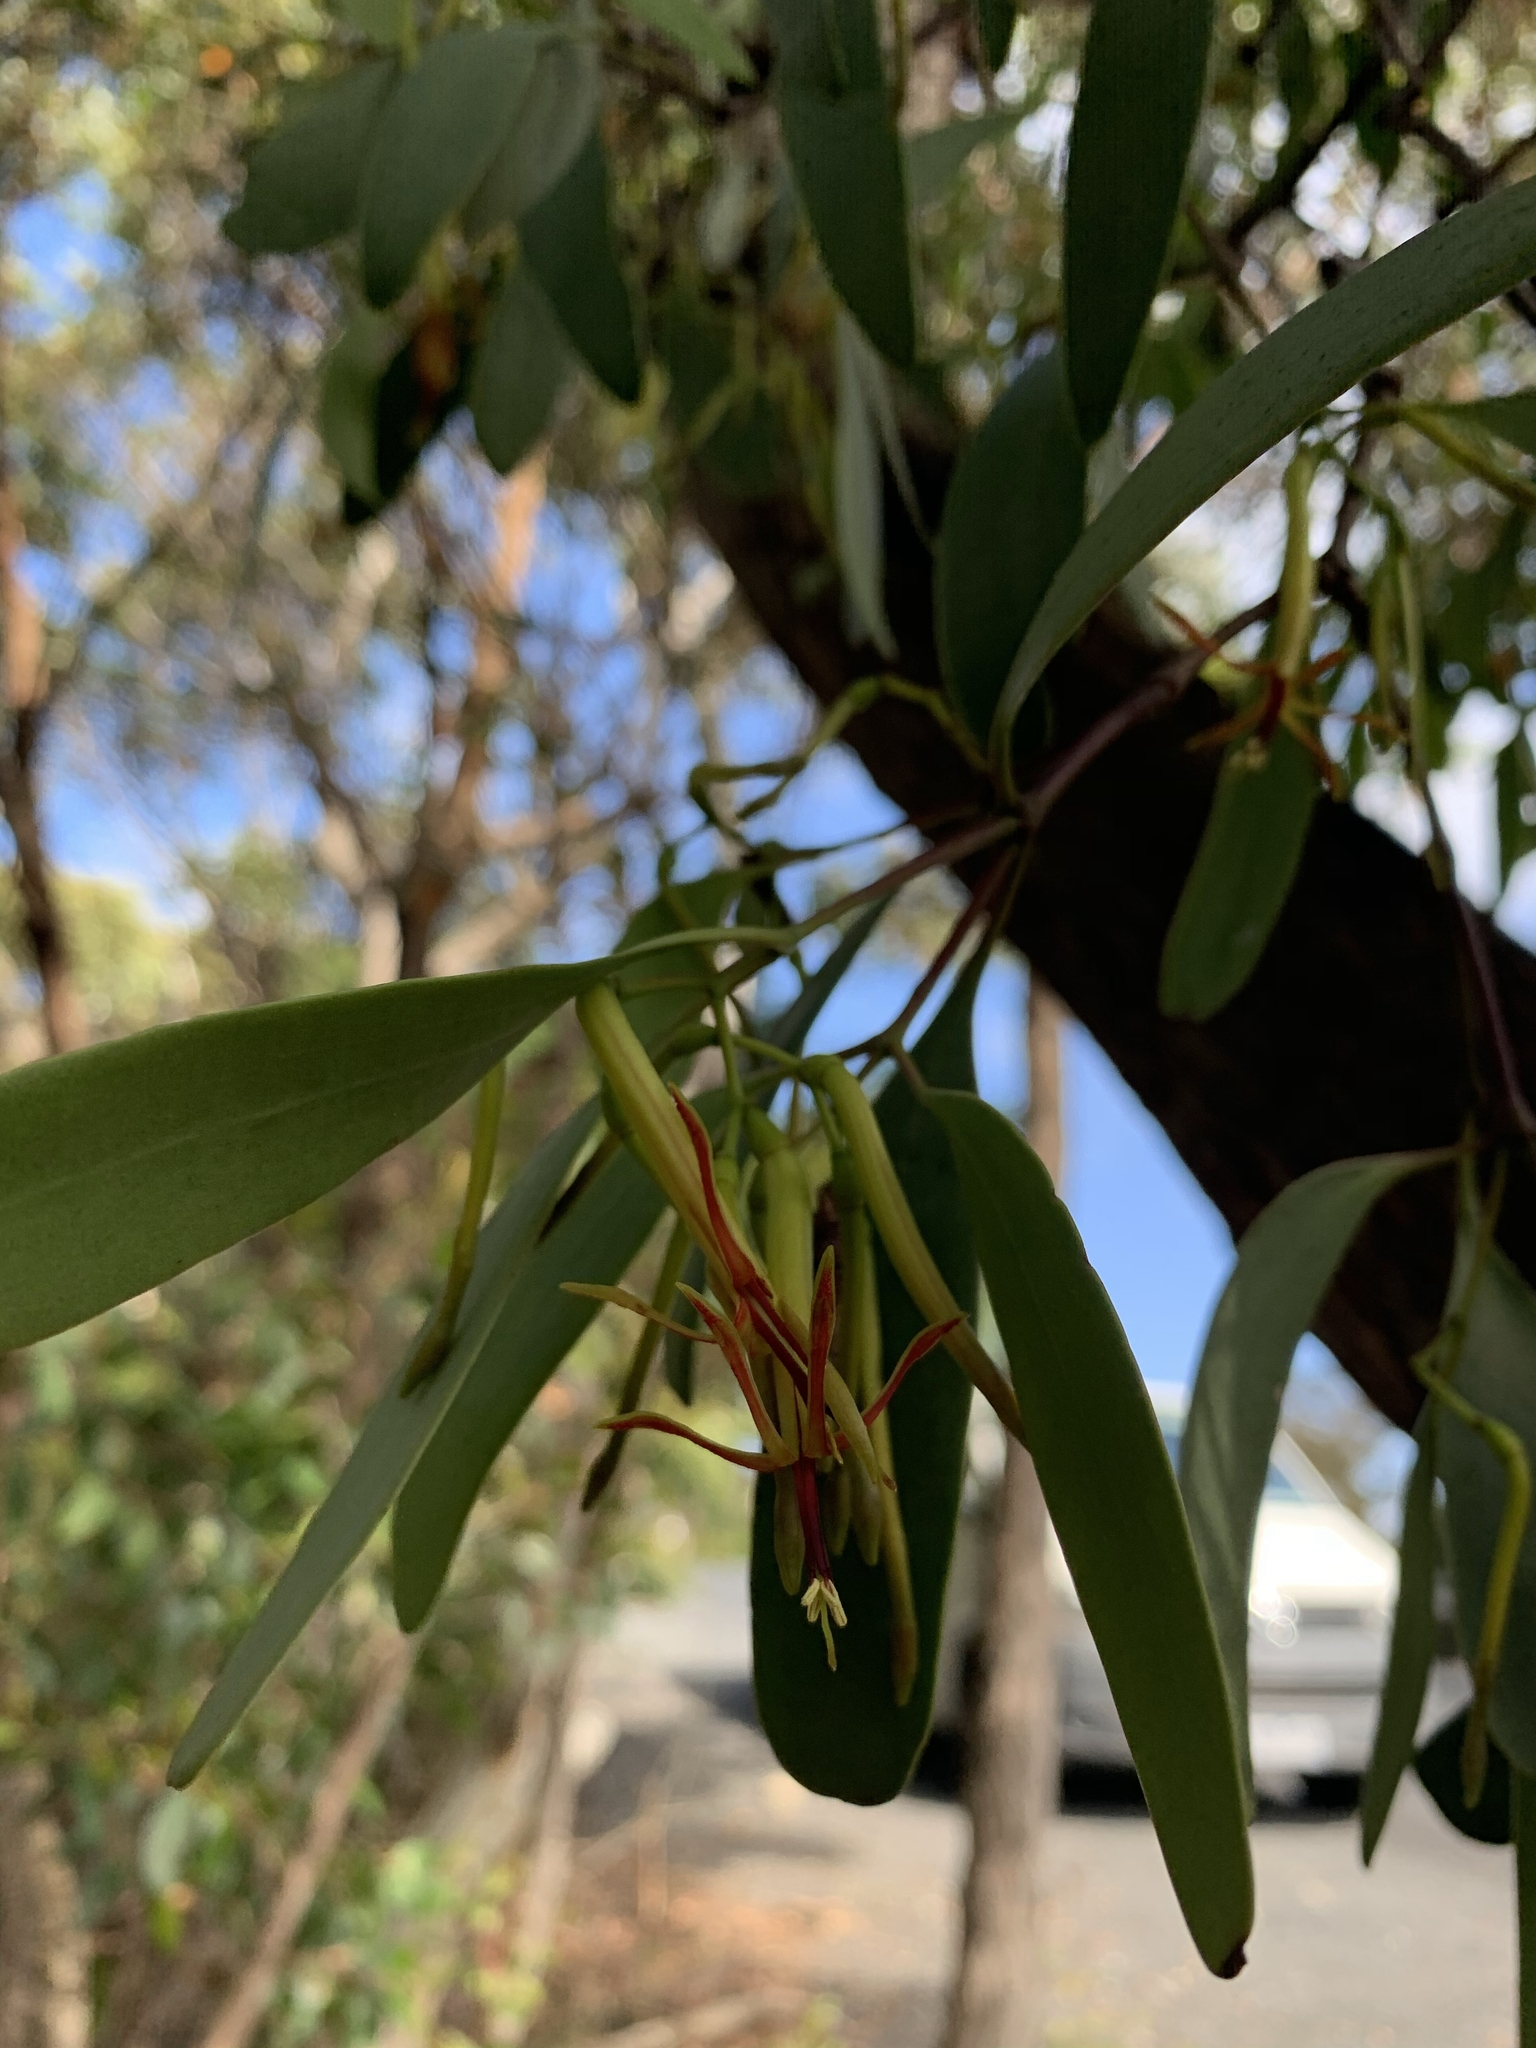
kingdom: Plantae
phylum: Tracheophyta
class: Magnoliopsida
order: Santalales
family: Loranthaceae
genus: Muellerina
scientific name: Muellerina eucalyptoides
